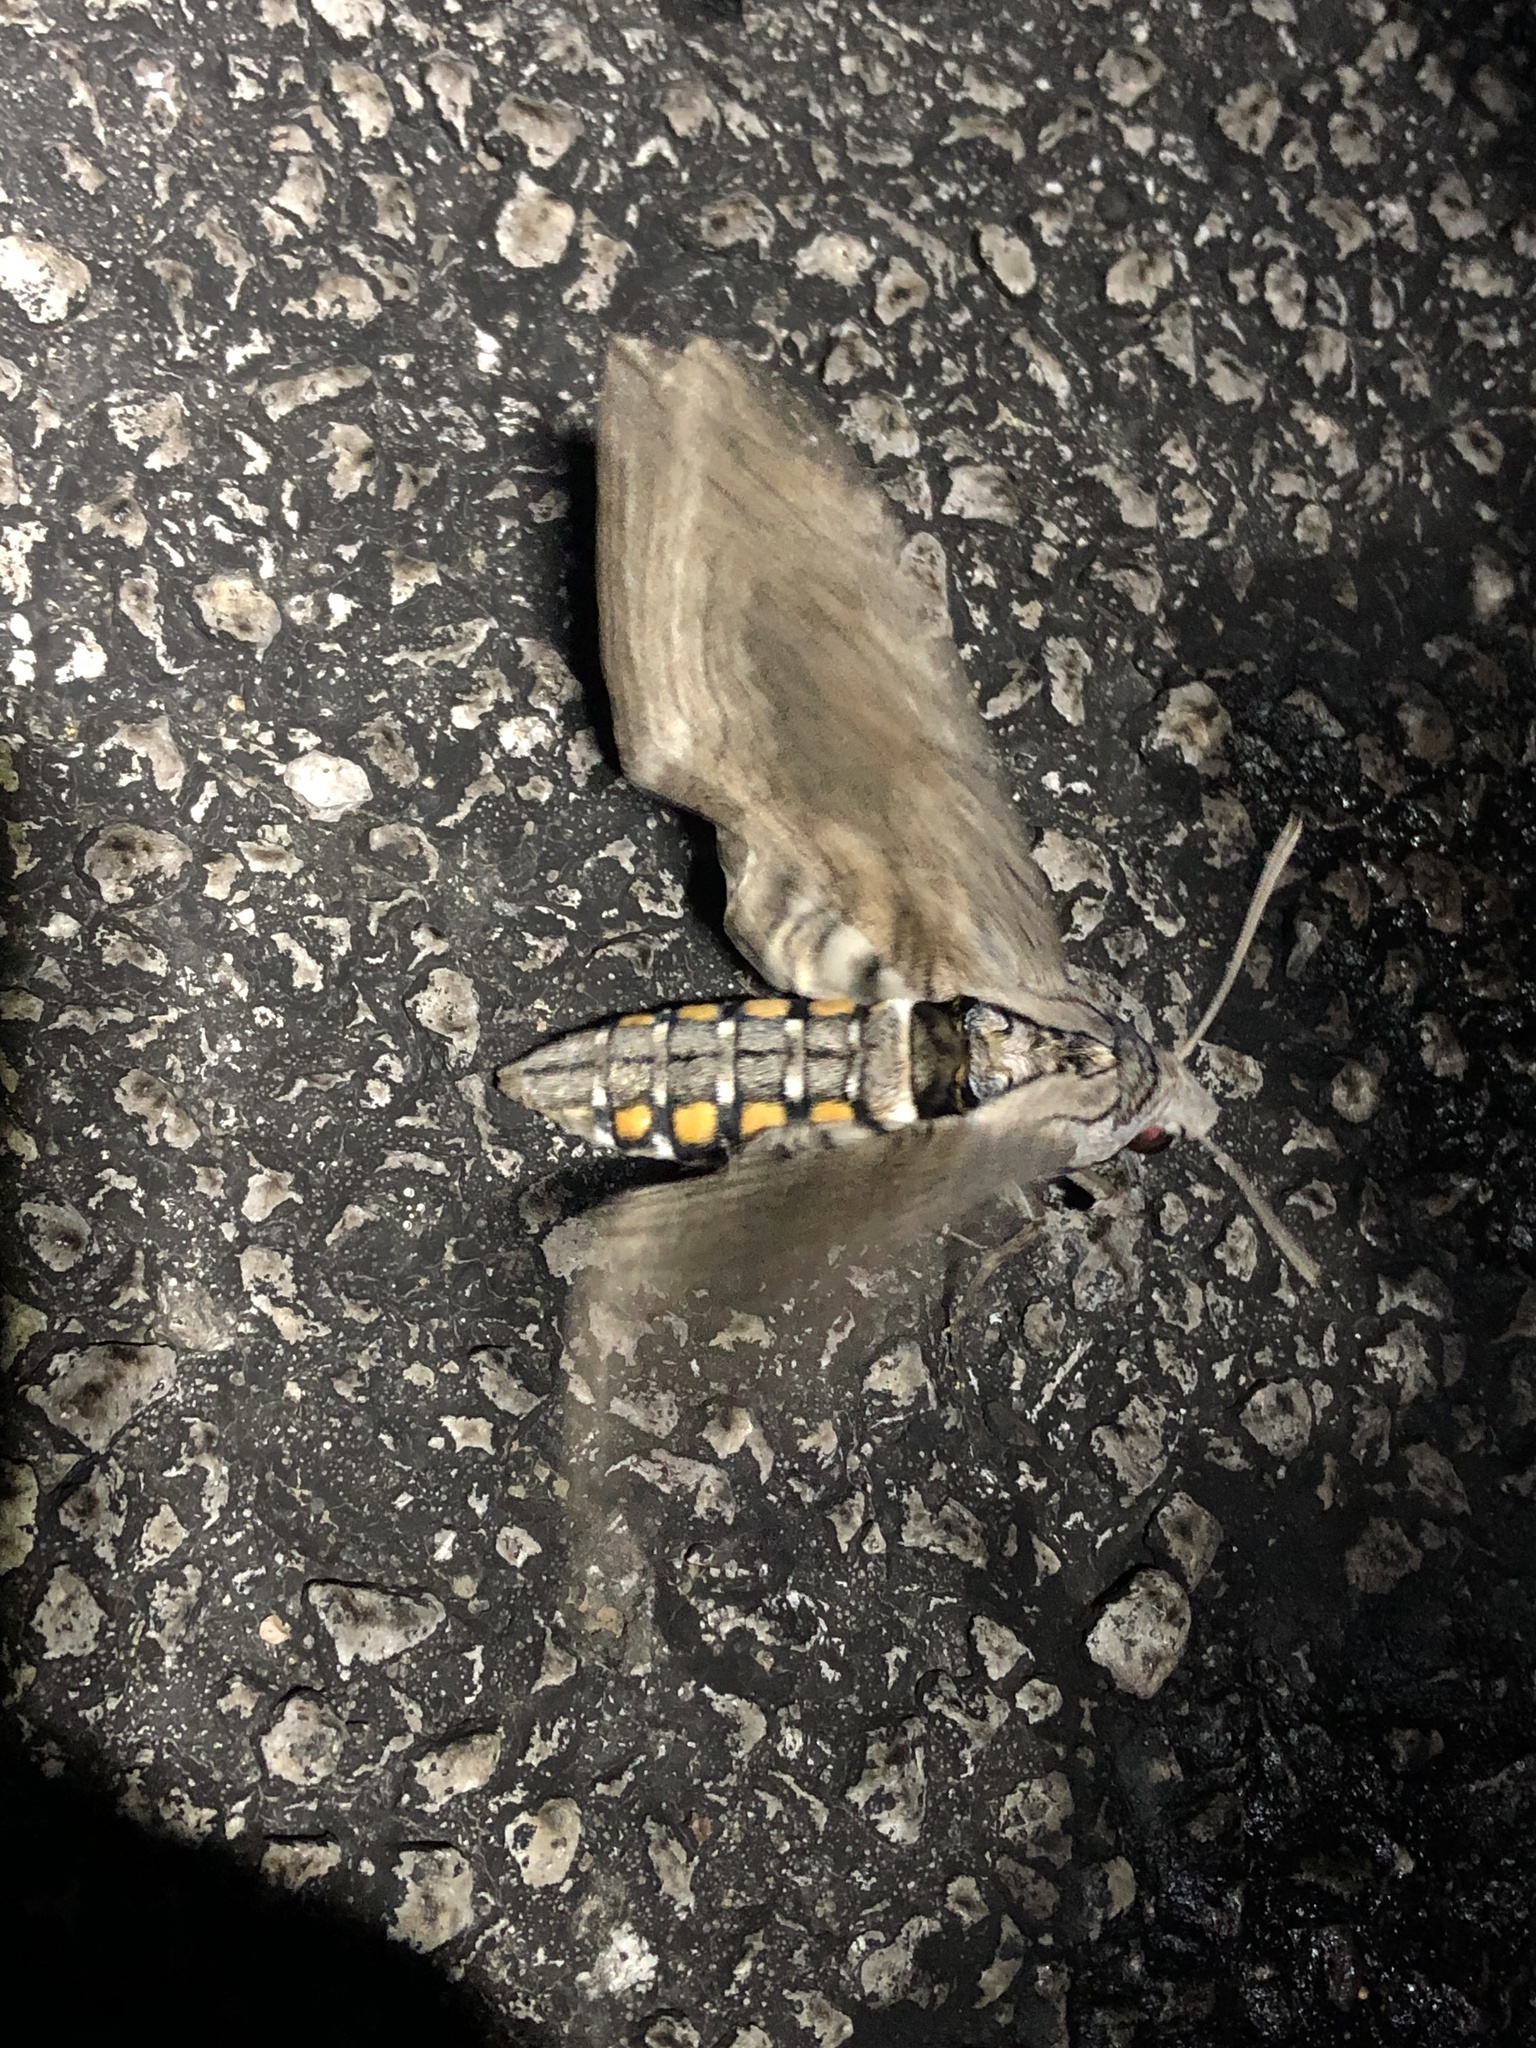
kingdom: Animalia
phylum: Arthropoda
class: Insecta
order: Lepidoptera
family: Sphingidae
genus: Manduca
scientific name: Manduca quinquemaculatus
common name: Five-spotted hawk-moth
